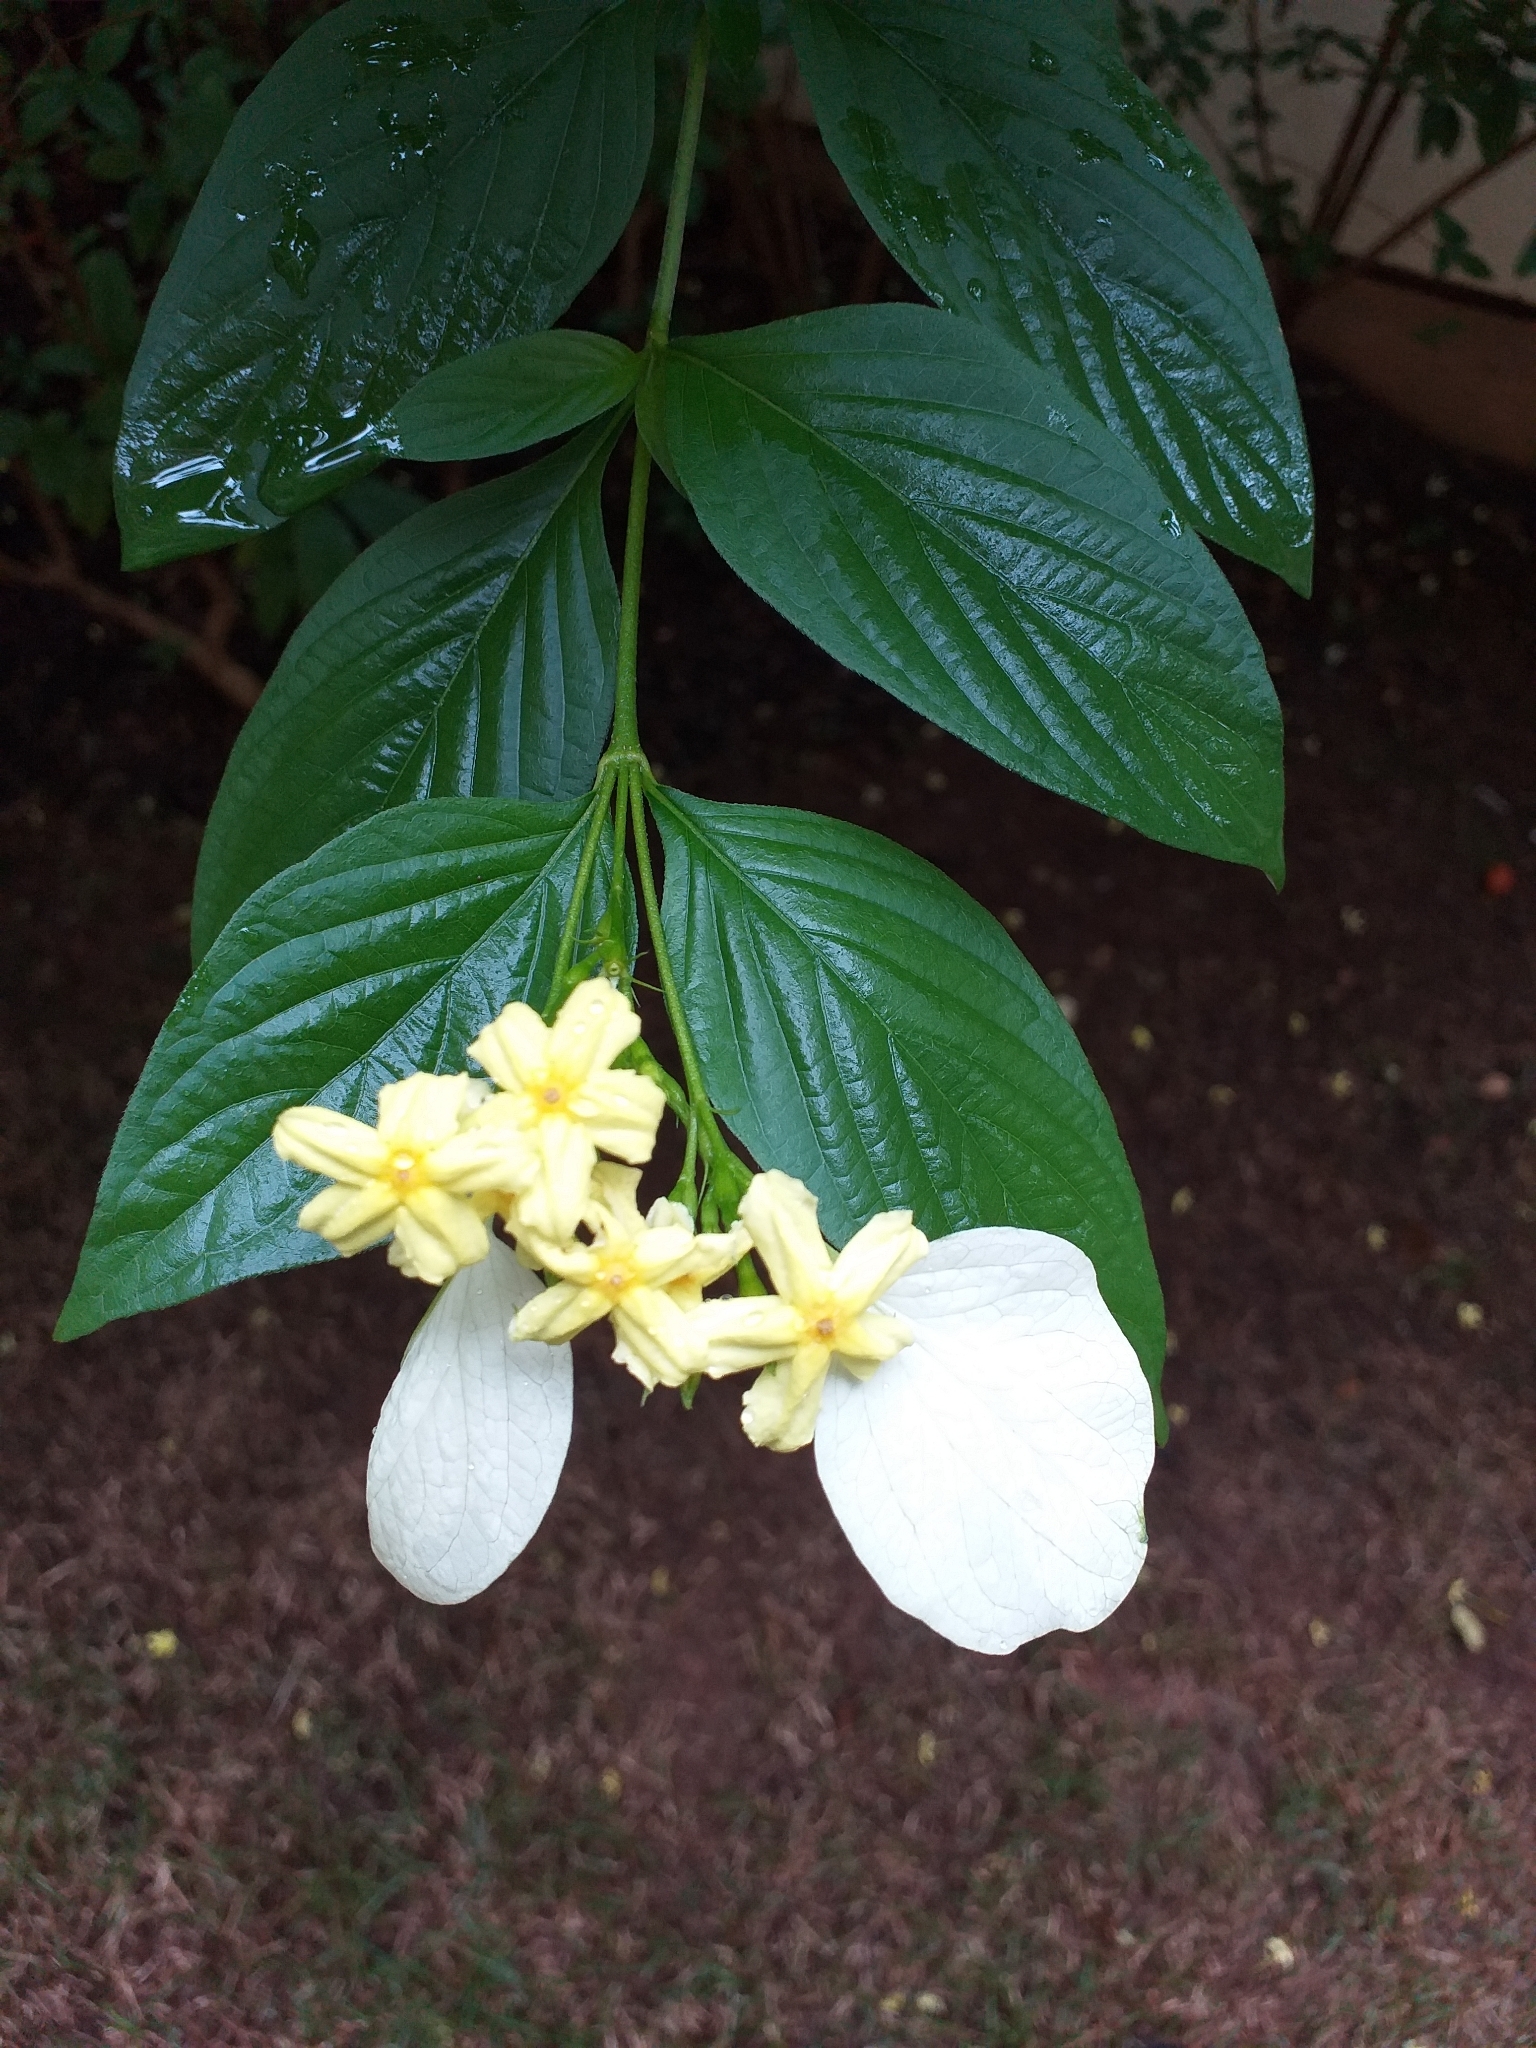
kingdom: Plantae
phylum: Tracheophyta
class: Magnoliopsida
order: Gentianales
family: Rubiaceae
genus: Pseudomussaenda
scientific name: Pseudomussaenda flava
